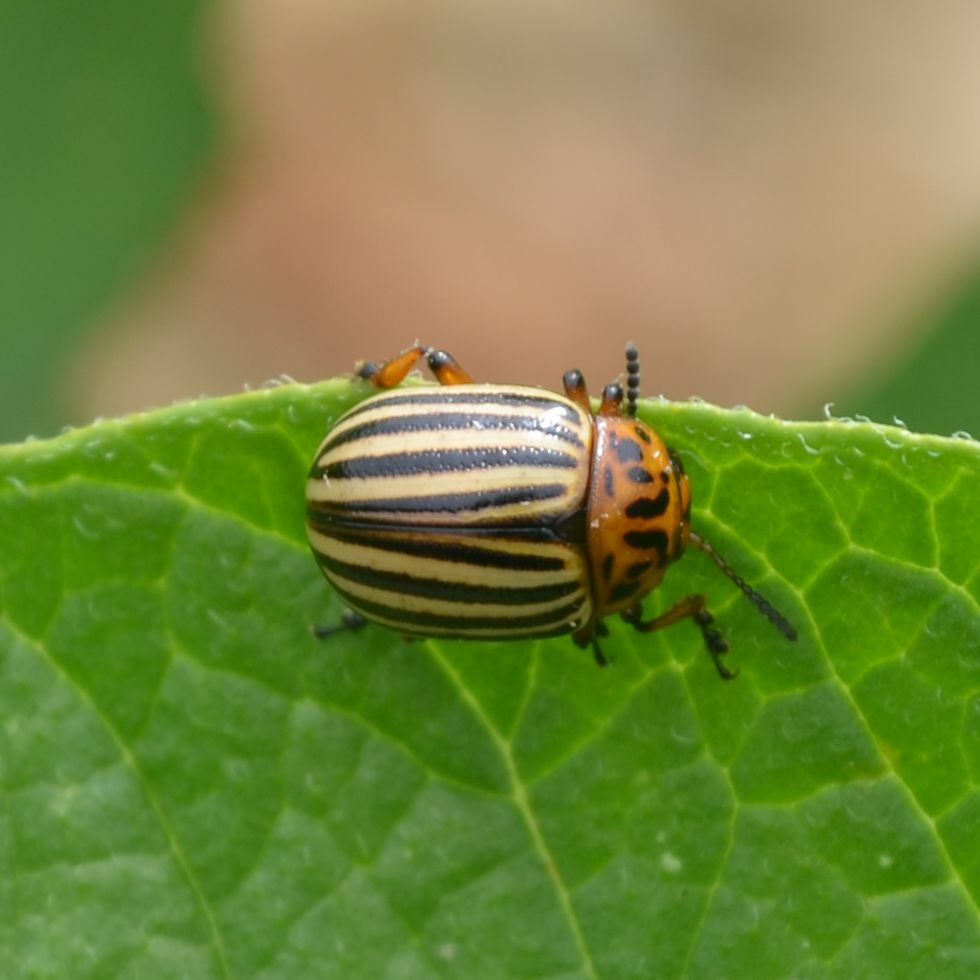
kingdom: Animalia
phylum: Arthropoda
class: Insecta
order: Coleoptera
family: Chrysomelidae
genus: Leptinotarsa
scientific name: Leptinotarsa decemlineata
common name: Colorado potato beetle
